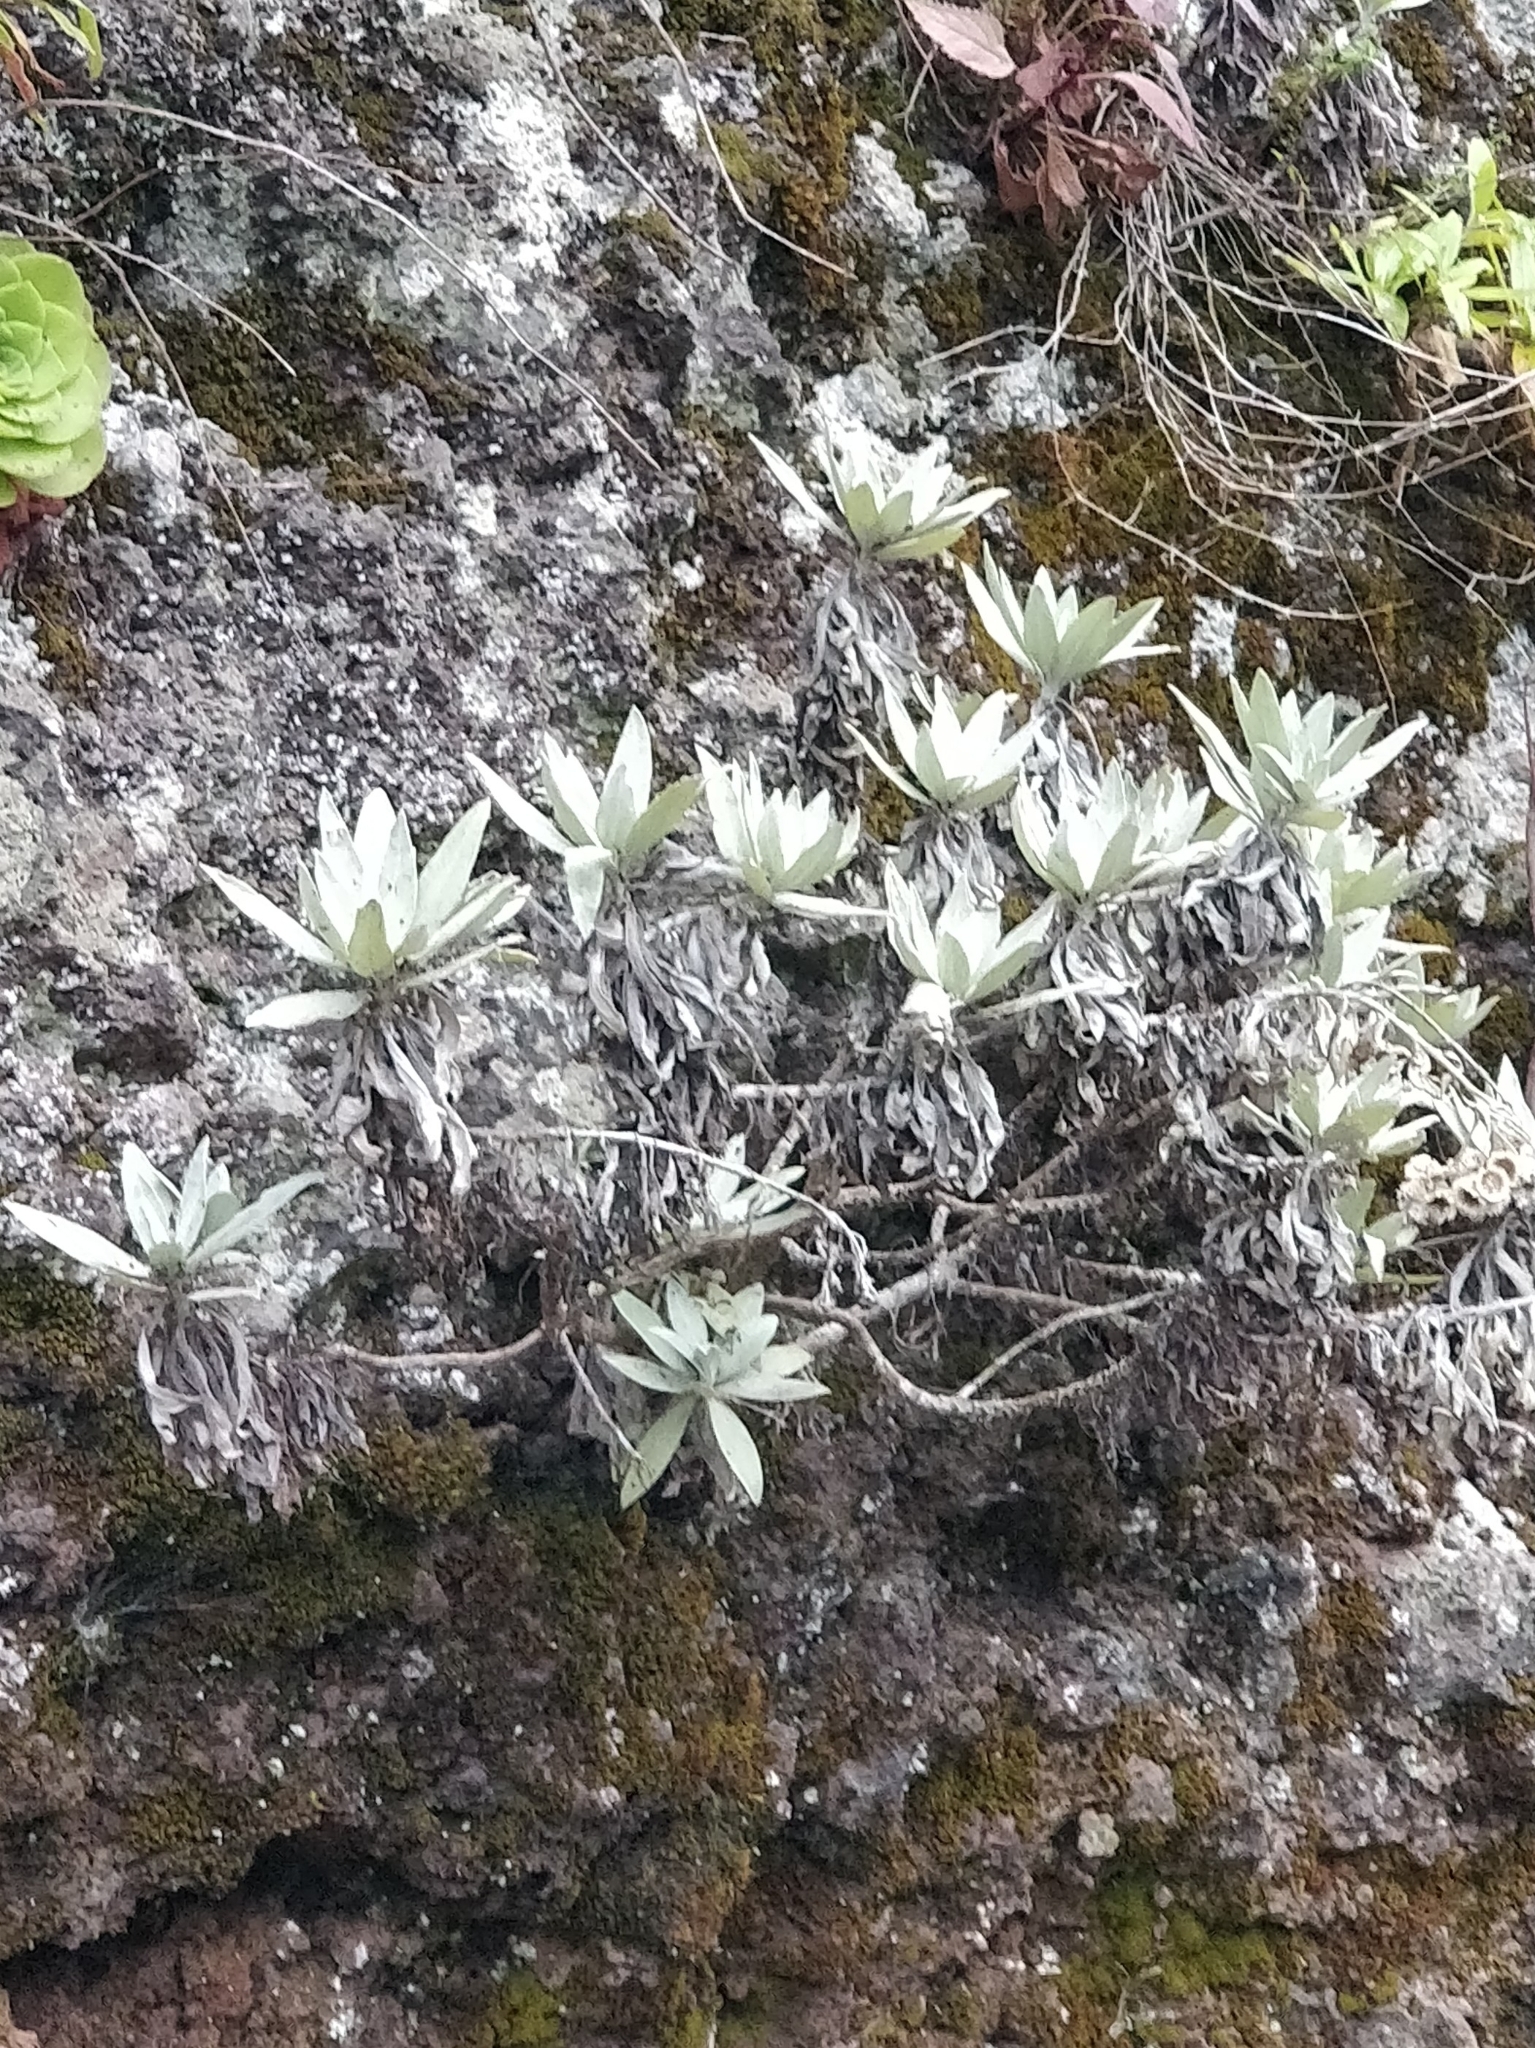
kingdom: Plantae
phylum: Tracheophyta
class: Magnoliopsida
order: Asterales
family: Asteraceae
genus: Helichrysum
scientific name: Helichrysum melaleucum
